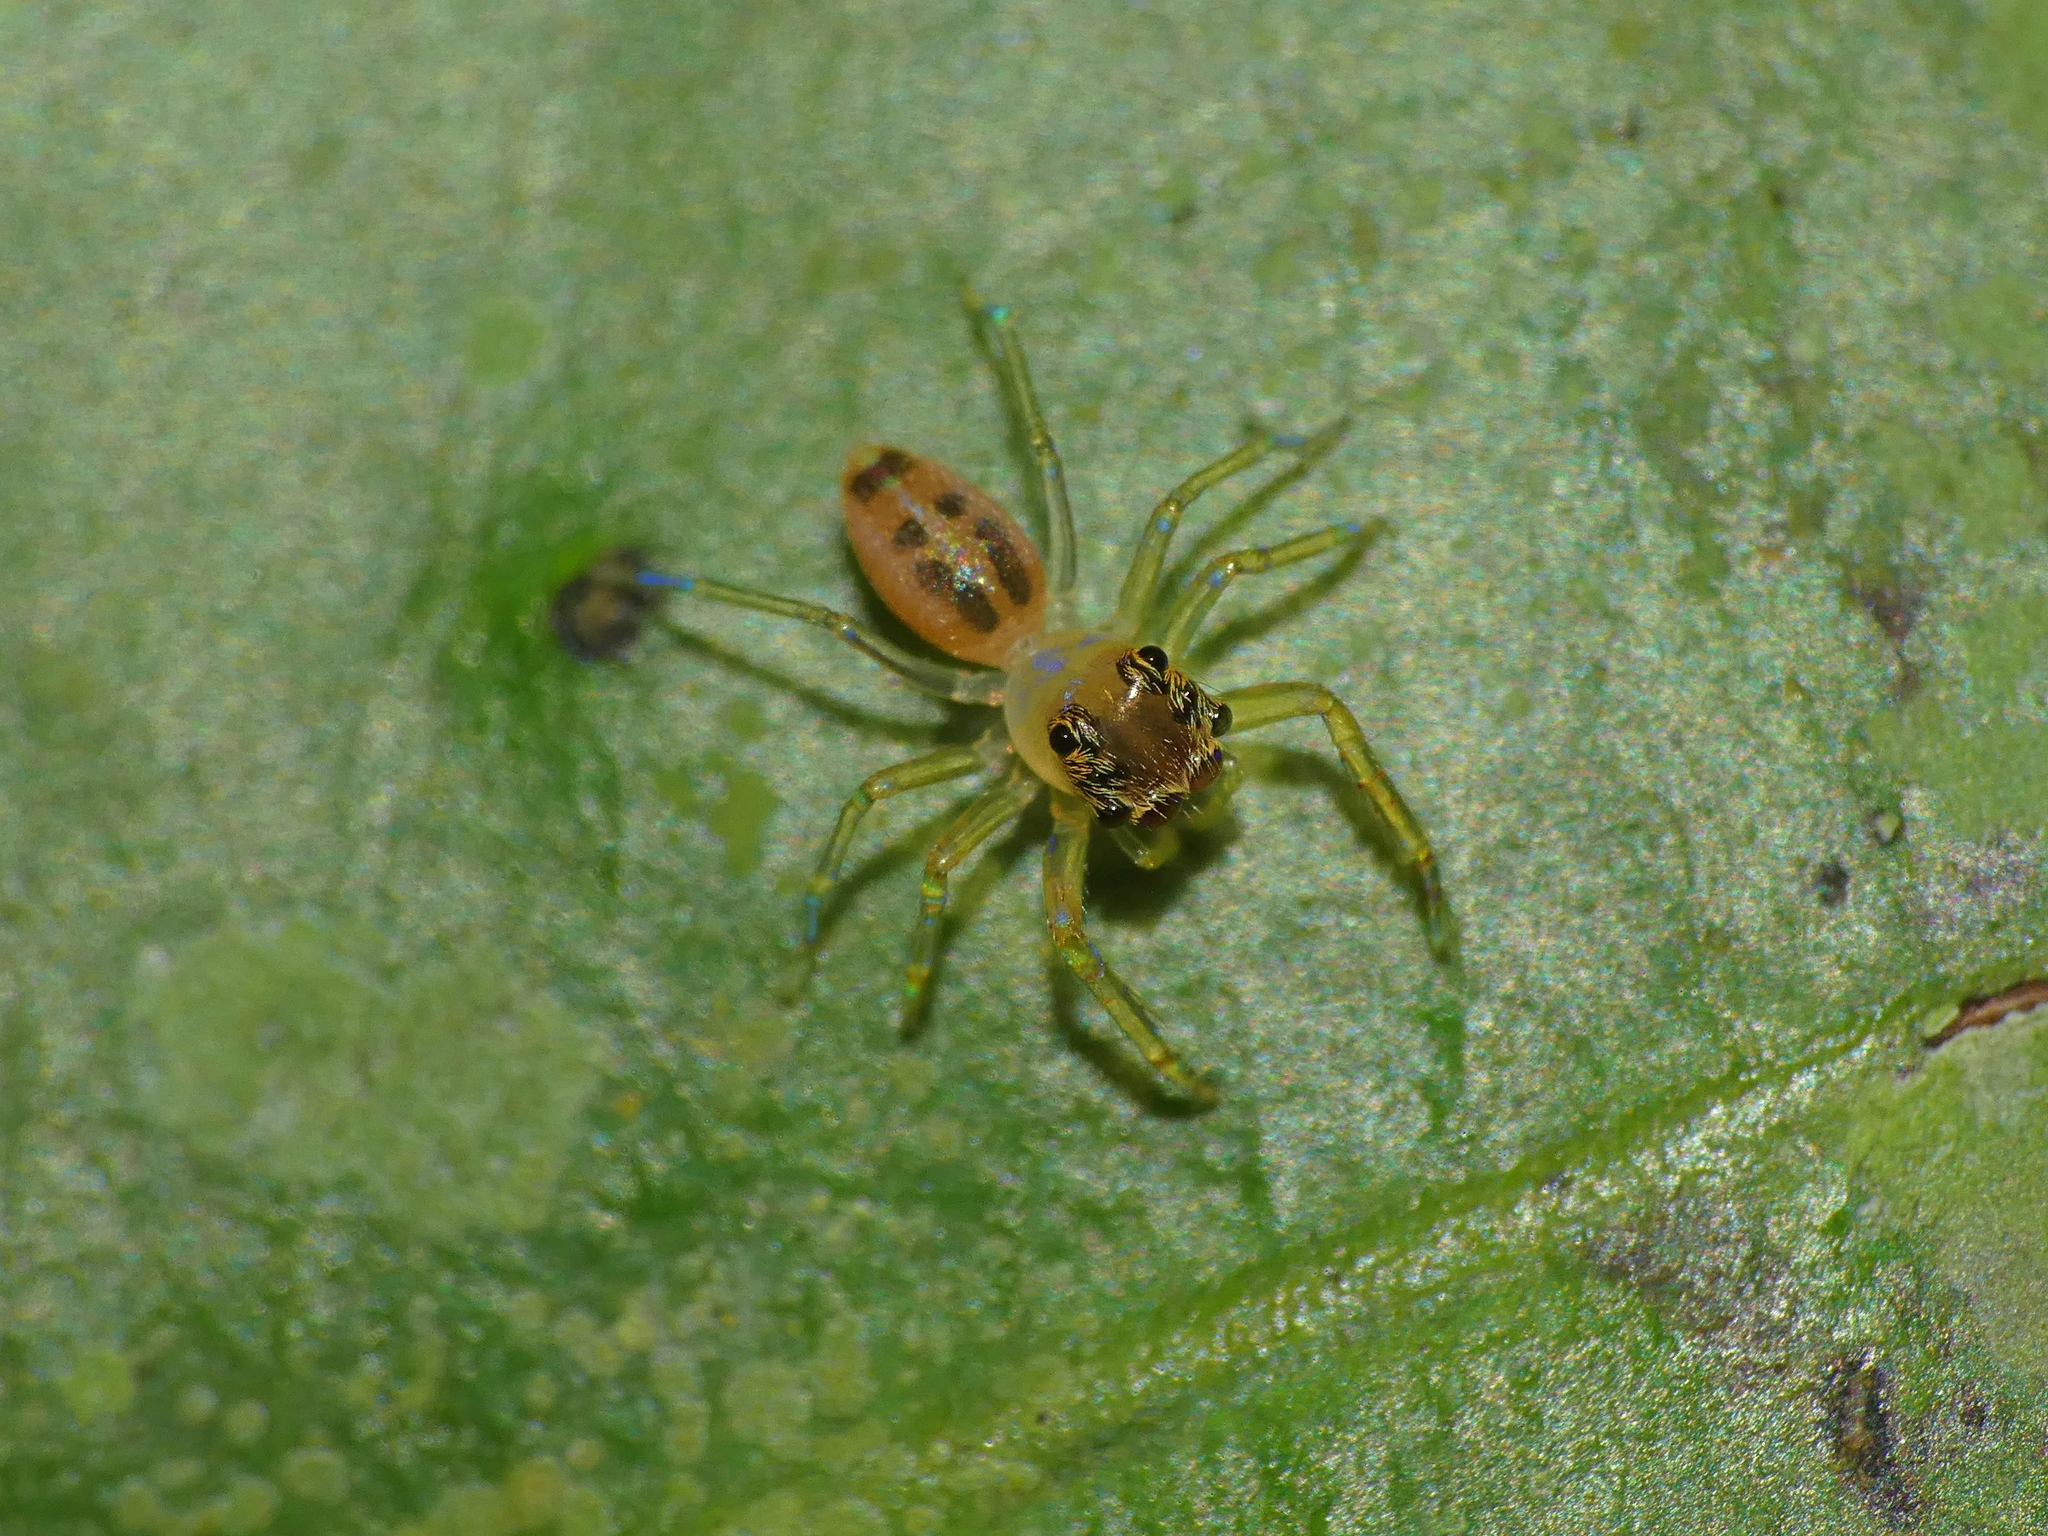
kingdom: Animalia
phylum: Arthropoda
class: Arachnida
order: Araneae
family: Salticidae
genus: Astilodes
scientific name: Astilodes mariae
